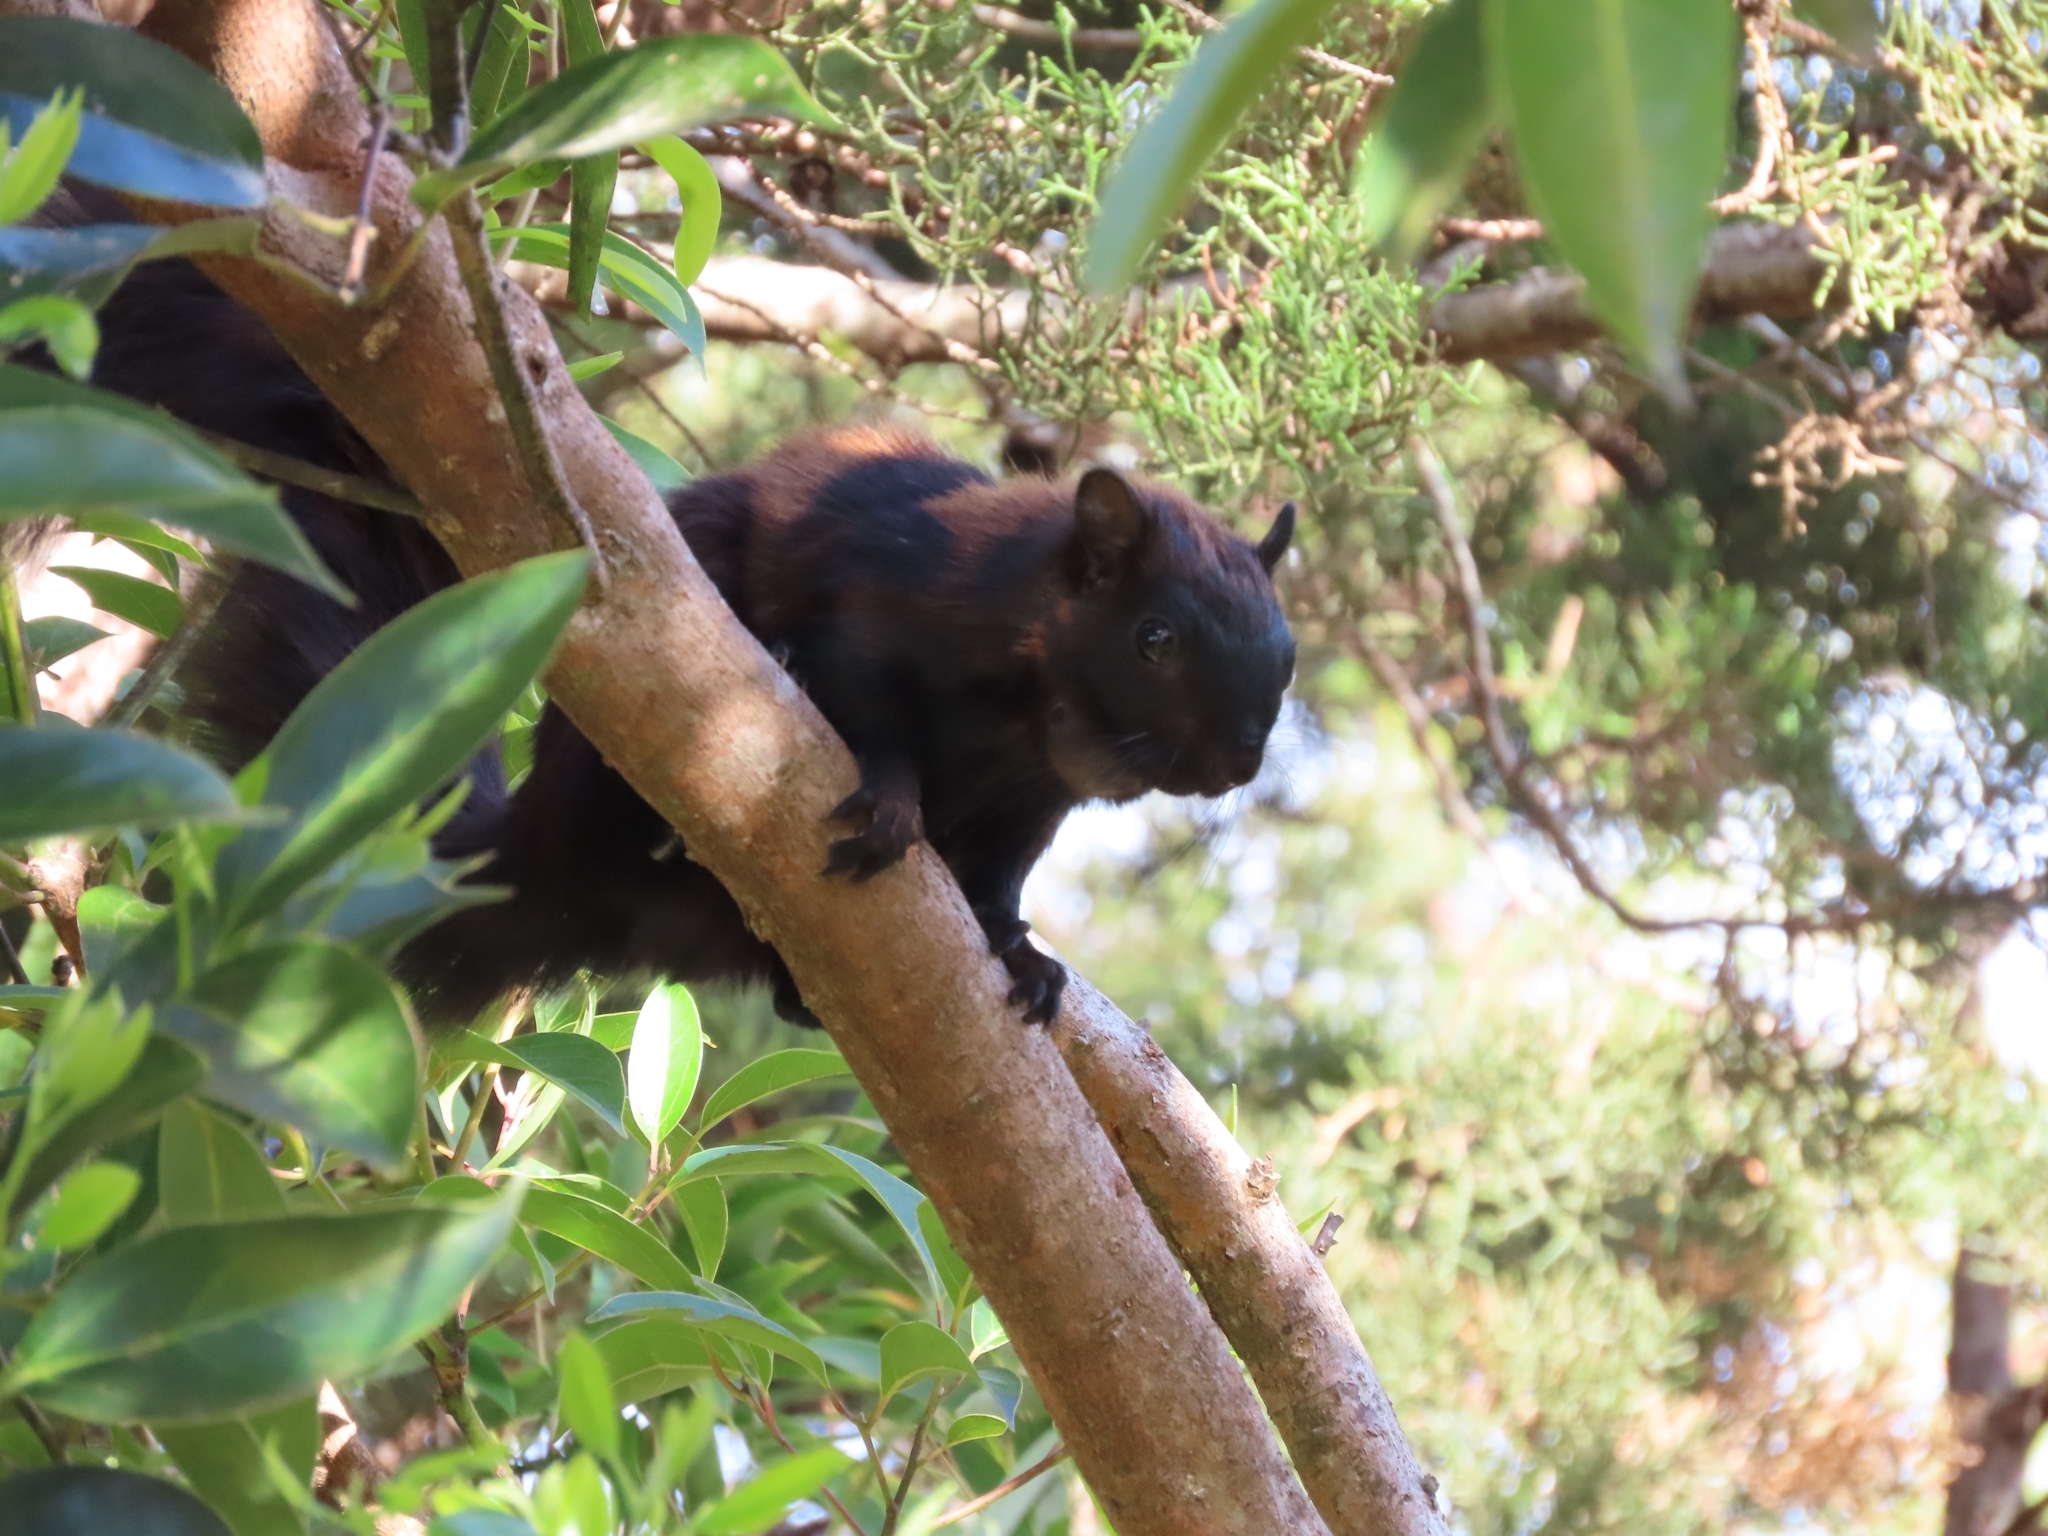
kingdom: Animalia
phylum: Chordata
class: Mammalia
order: Rodentia
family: Sciuridae
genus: Sciurus
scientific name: Sciurus variegatoides
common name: Variegated squirrel
